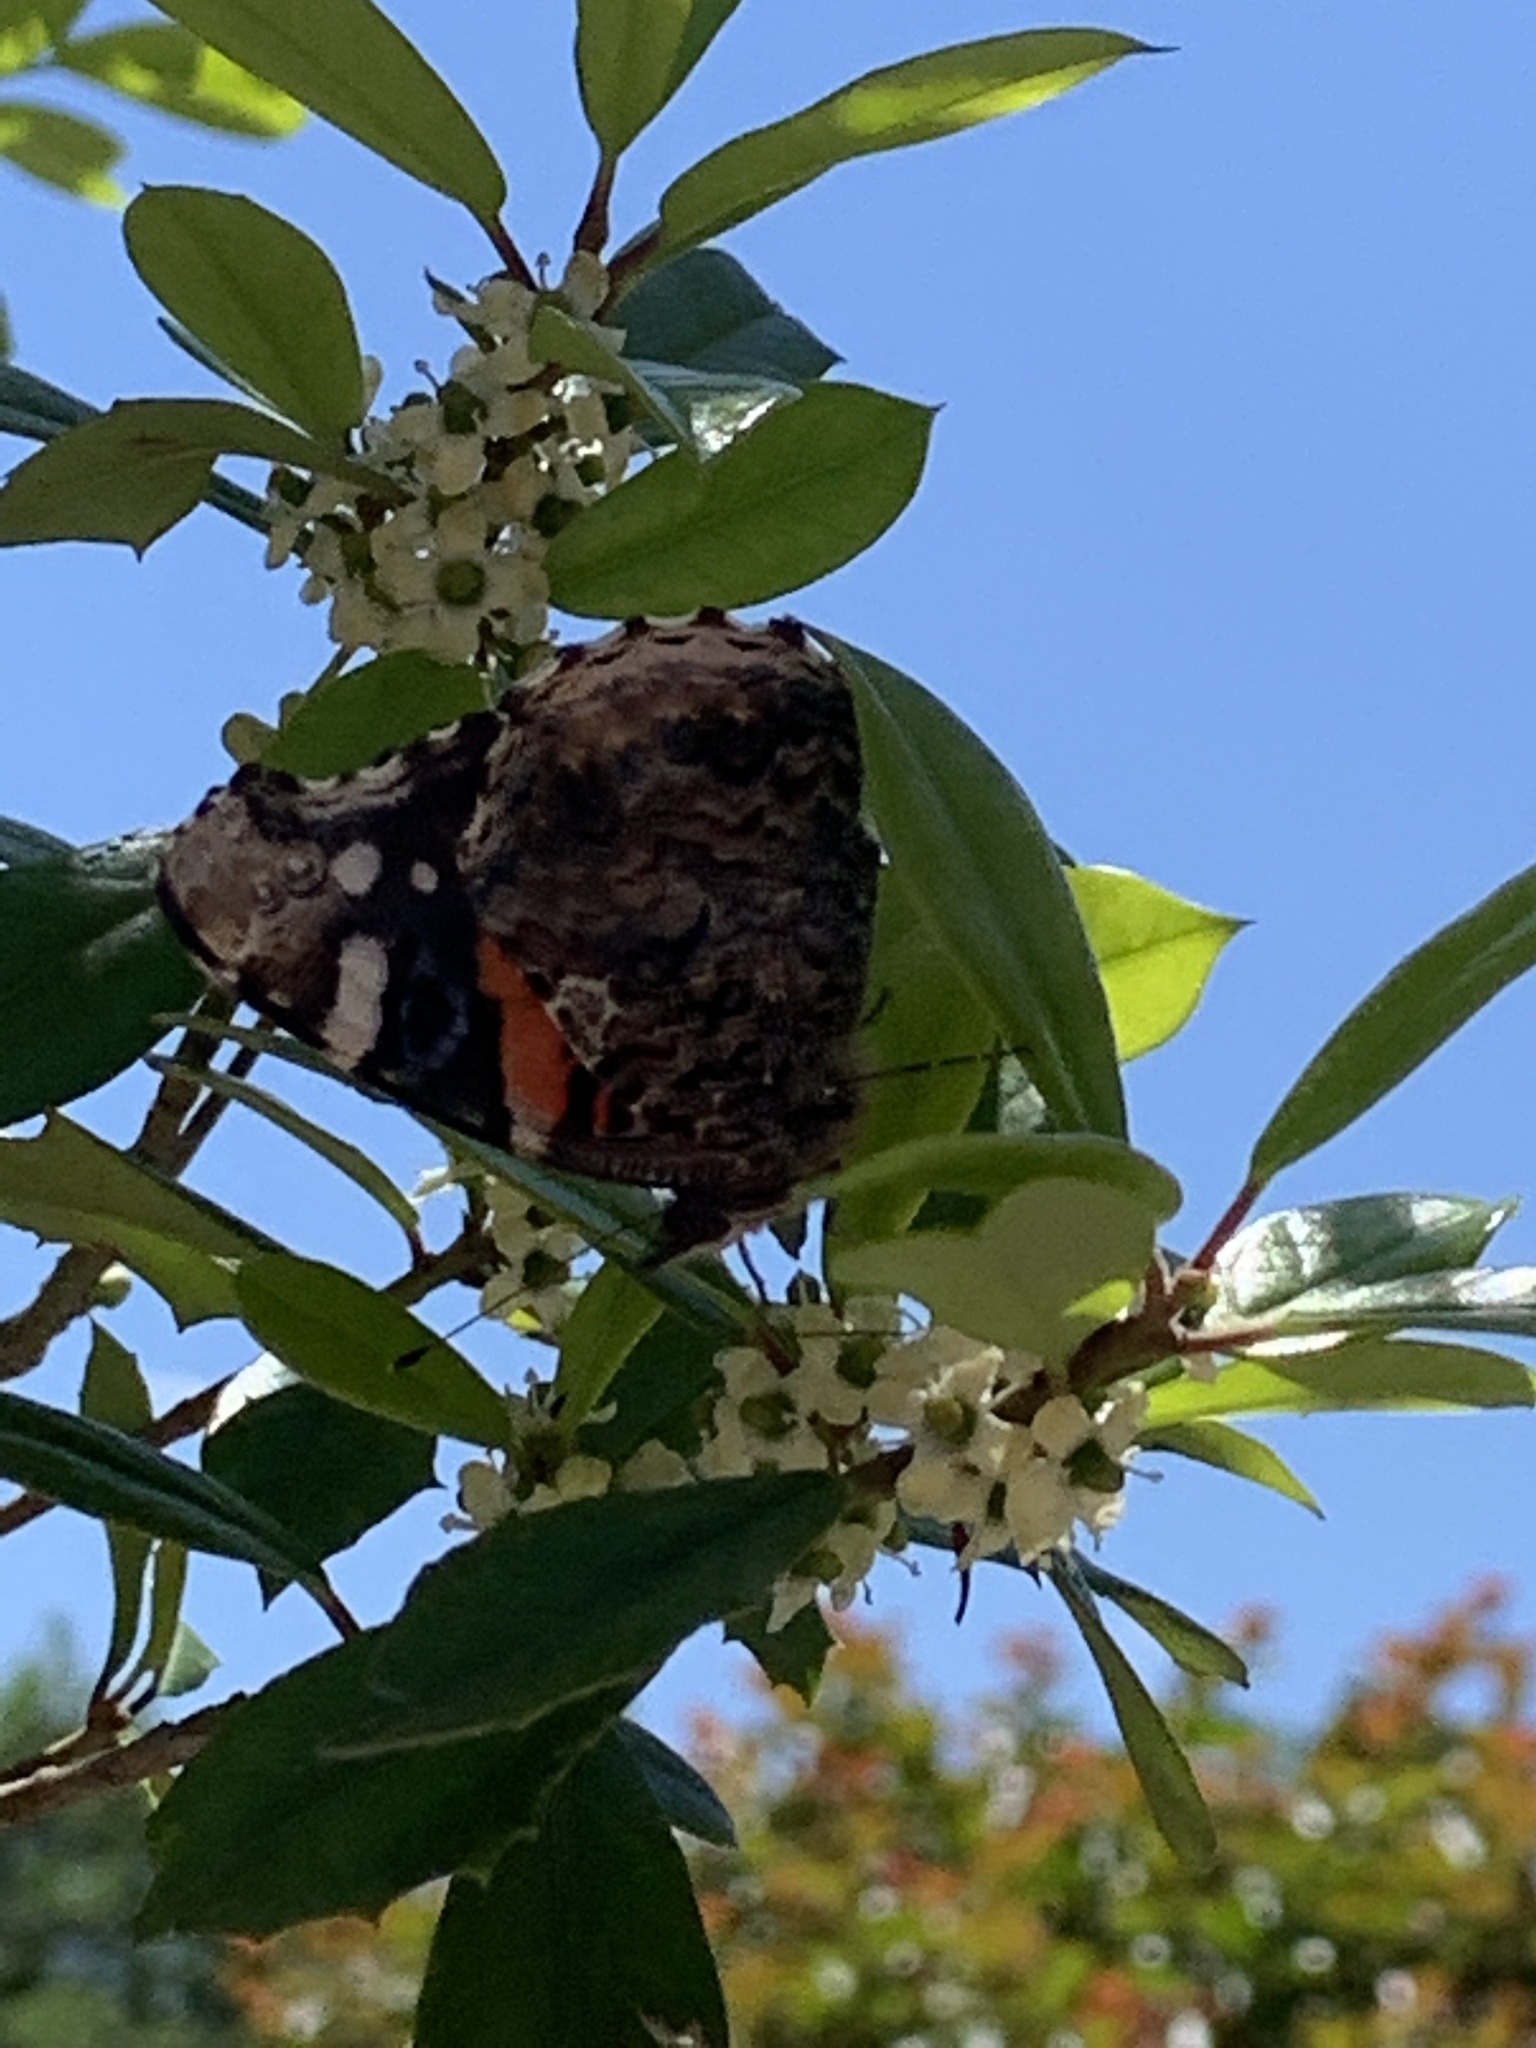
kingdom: Animalia
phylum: Arthropoda
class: Insecta
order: Lepidoptera
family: Nymphalidae
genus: Vanessa
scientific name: Vanessa atalanta
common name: Red admiral
